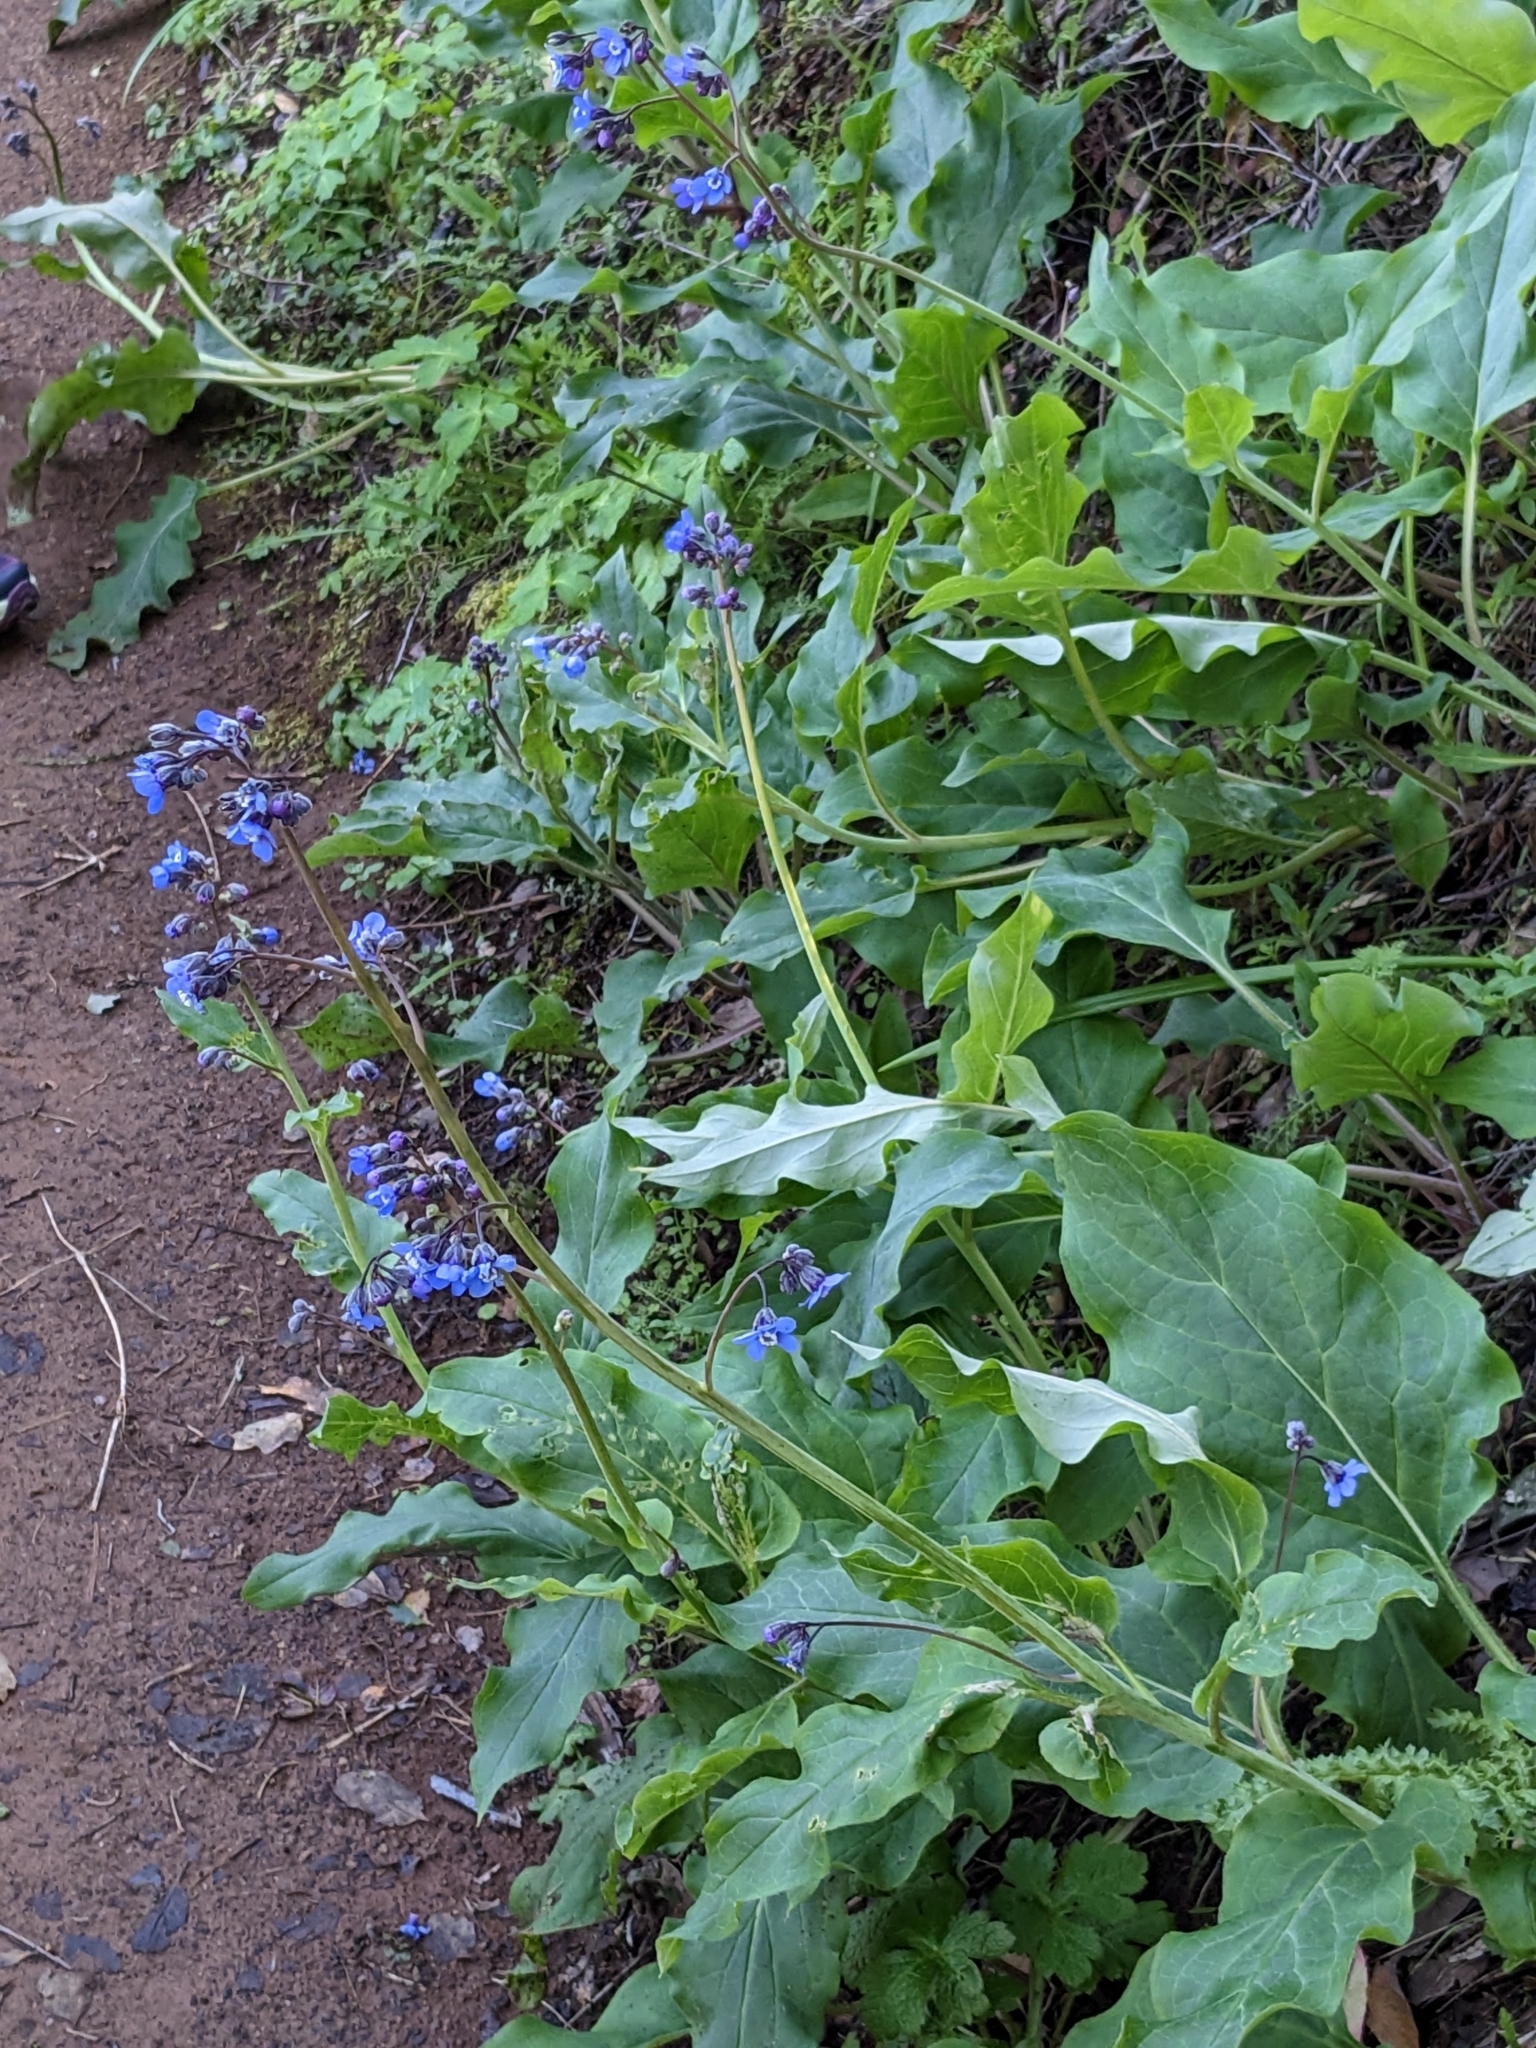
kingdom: Plantae
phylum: Tracheophyta
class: Magnoliopsida
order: Boraginales
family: Boraginaceae
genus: Adelinia
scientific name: Adelinia grande
